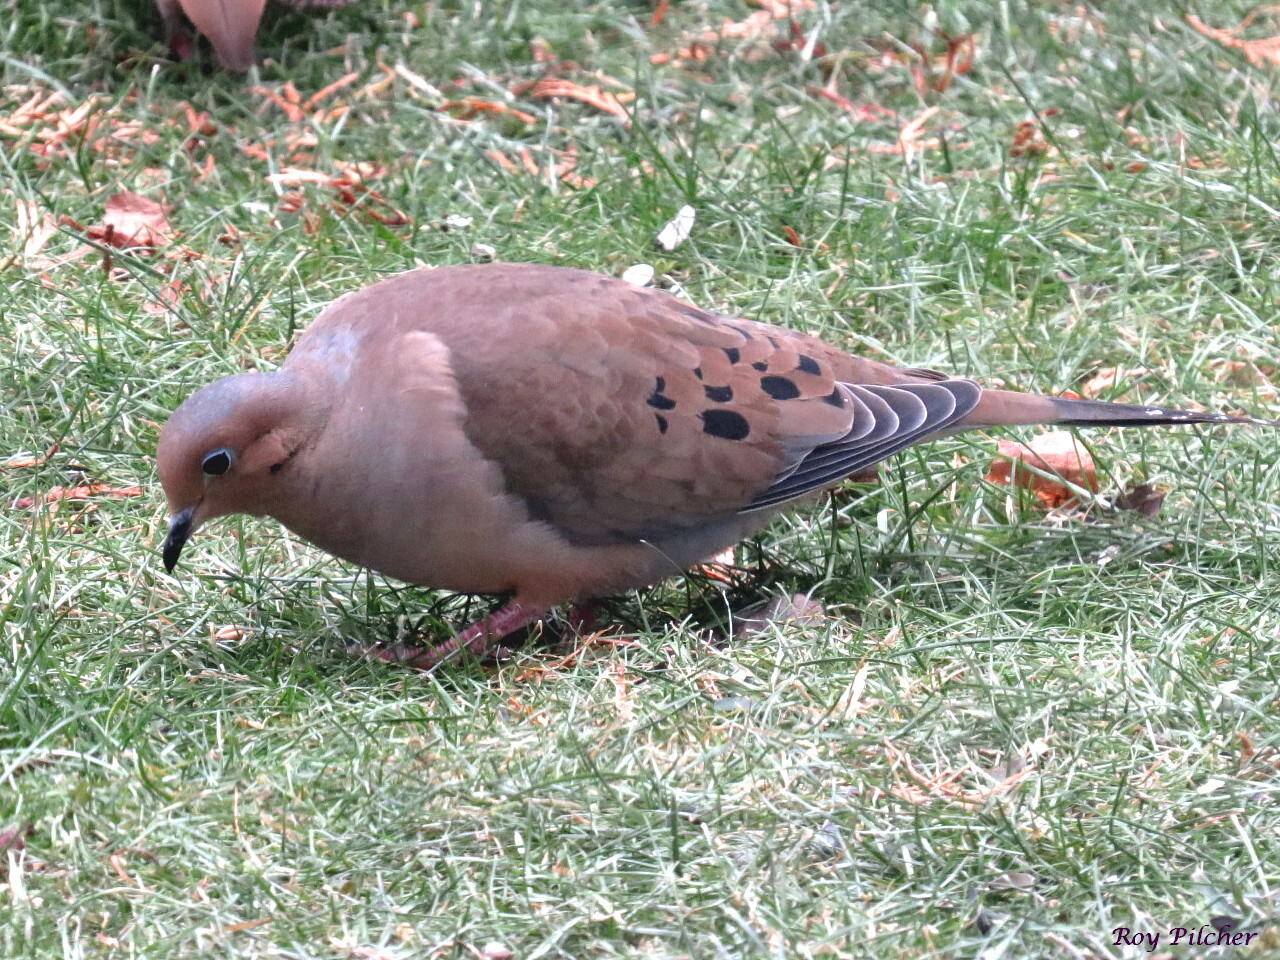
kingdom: Animalia
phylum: Chordata
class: Aves
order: Columbiformes
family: Columbidae
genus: Zenaida
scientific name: Zenaida macroura
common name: Mourning dove
